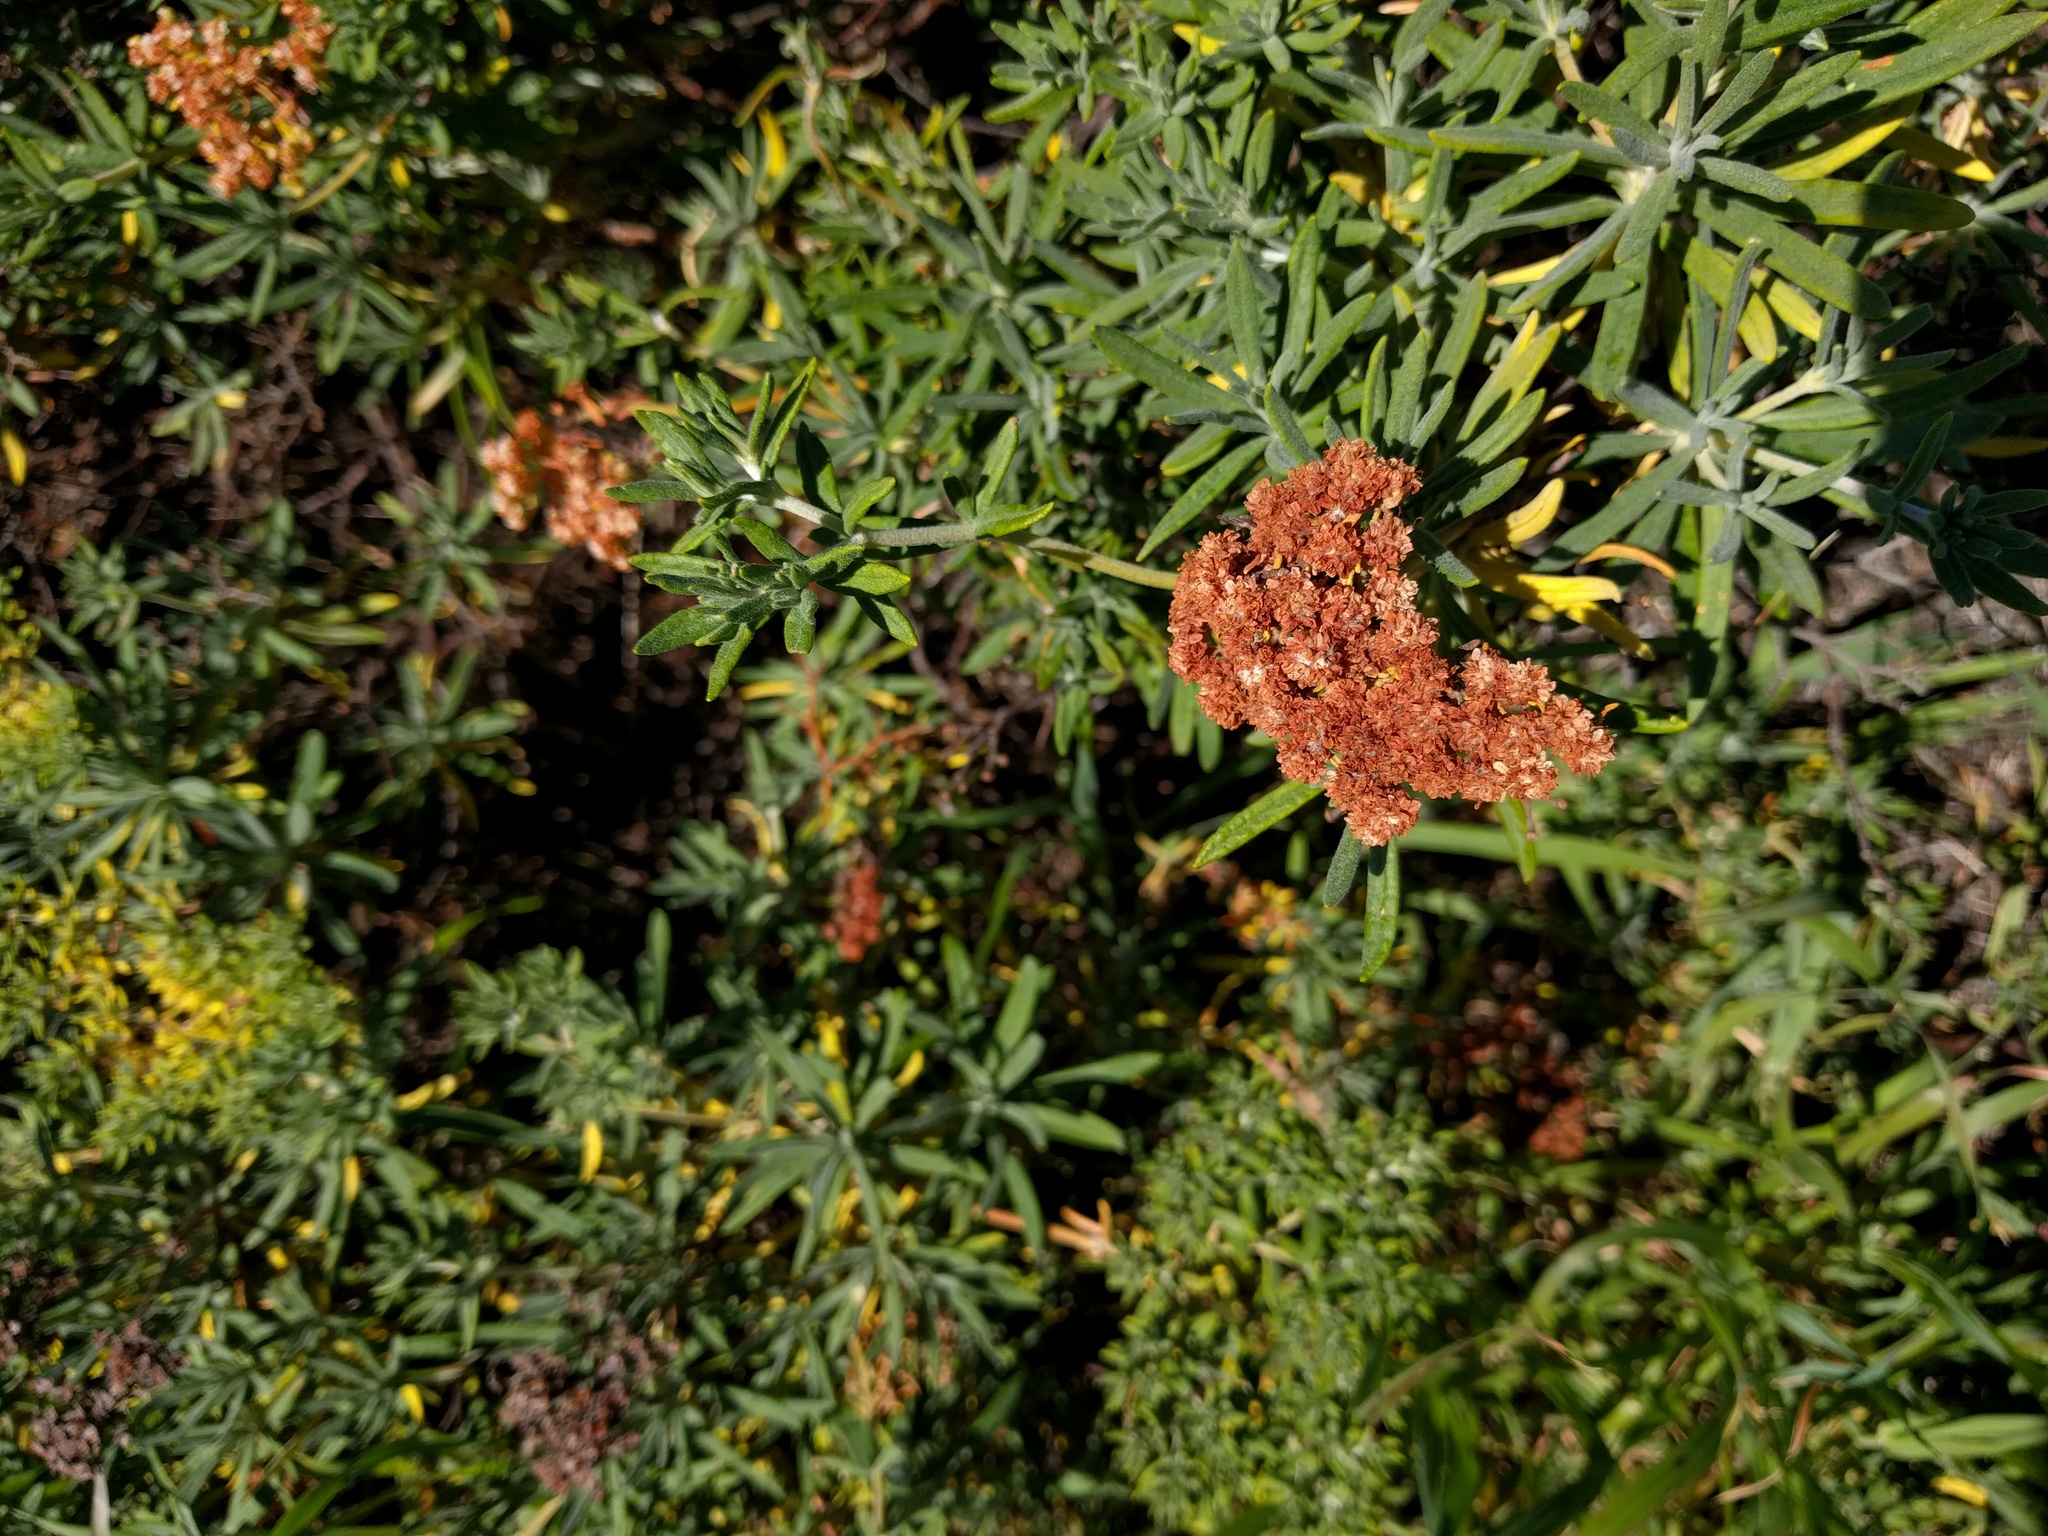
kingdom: Plantae
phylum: Tracheophyta
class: Magnoliopsida
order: Caryophyllales
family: Polygonaceae
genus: Eriogonum
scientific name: Eriogonum arborescens
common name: Island buckwheat
